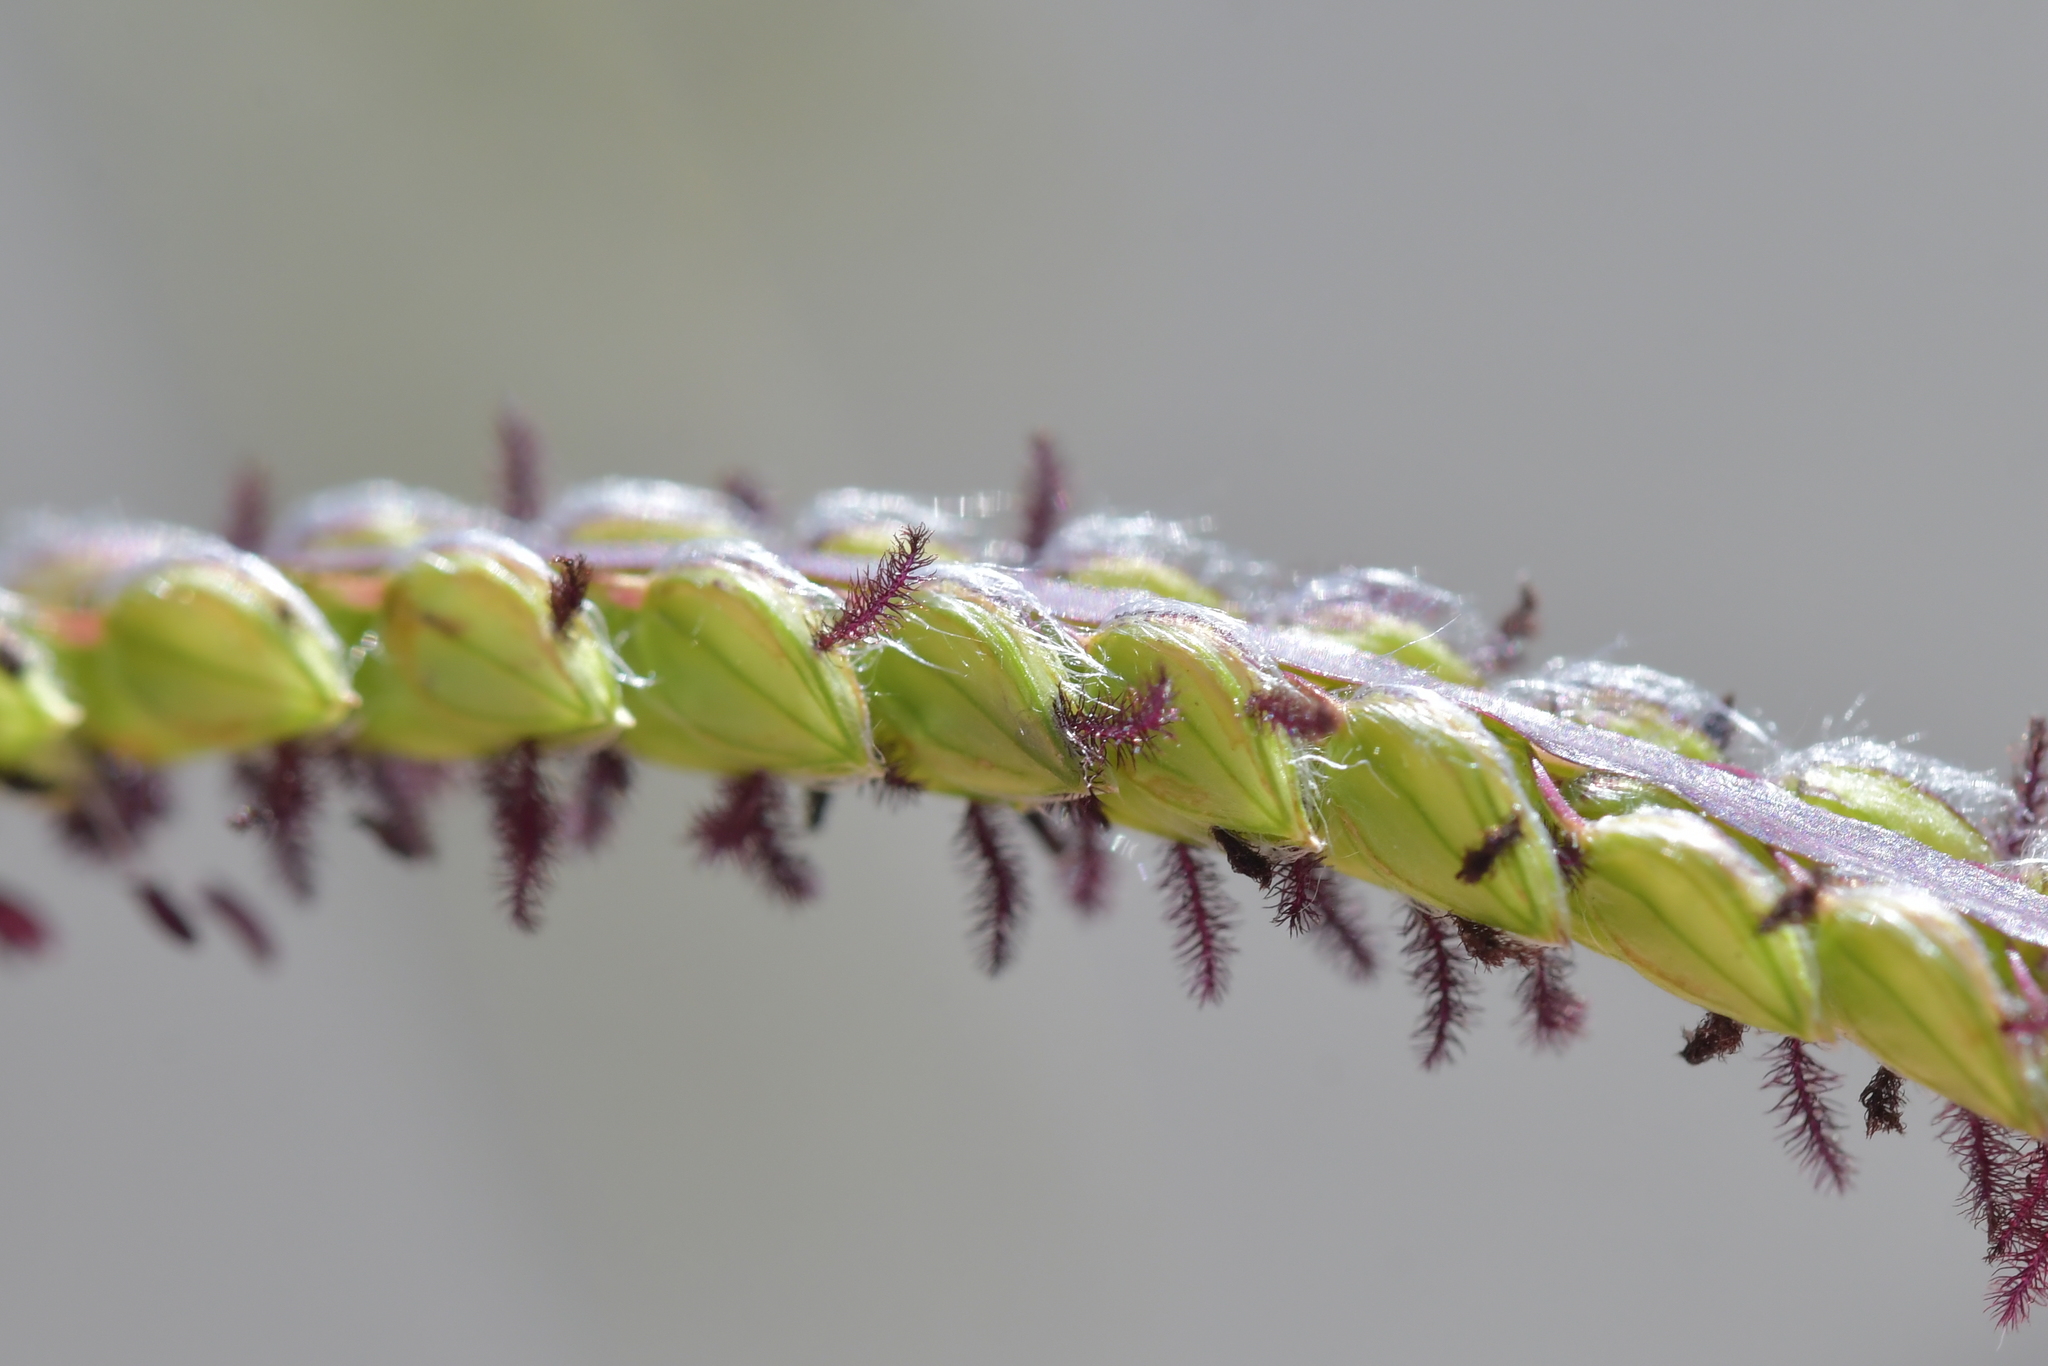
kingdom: Plantae
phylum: Tracheophyta
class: Liliopsida
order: Poales
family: Poaceae
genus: Paspalum
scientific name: Paspalum dilatatum
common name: Dallisgrass
